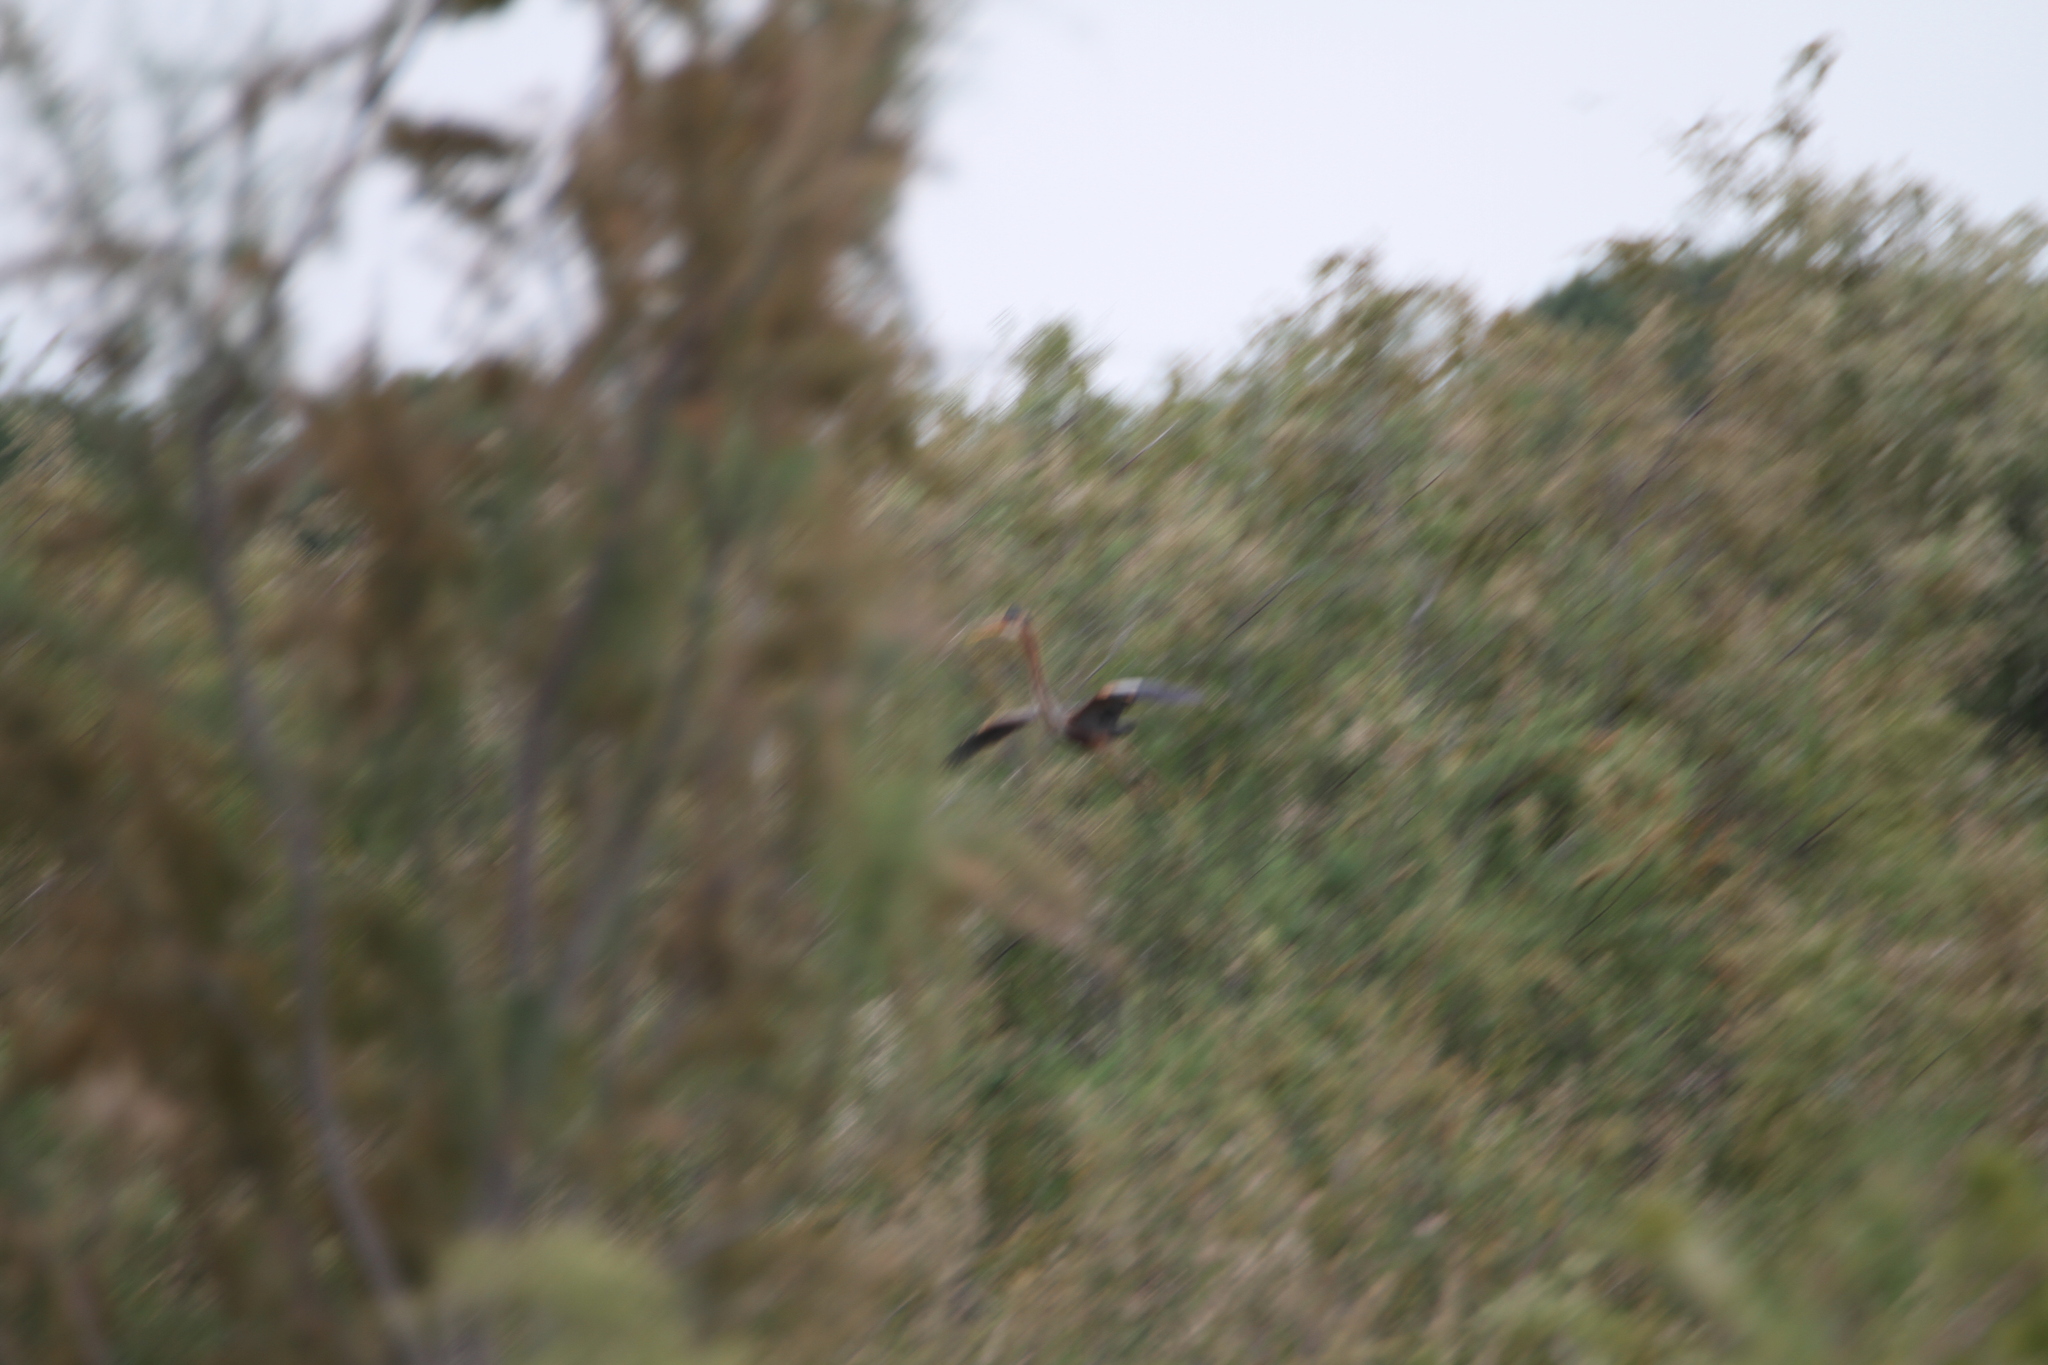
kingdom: Animalia
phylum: Chordata
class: Aves
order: Pelecaniformes
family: Ardeidae
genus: Ardea
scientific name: Ardea purpurea
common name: Purple heron
